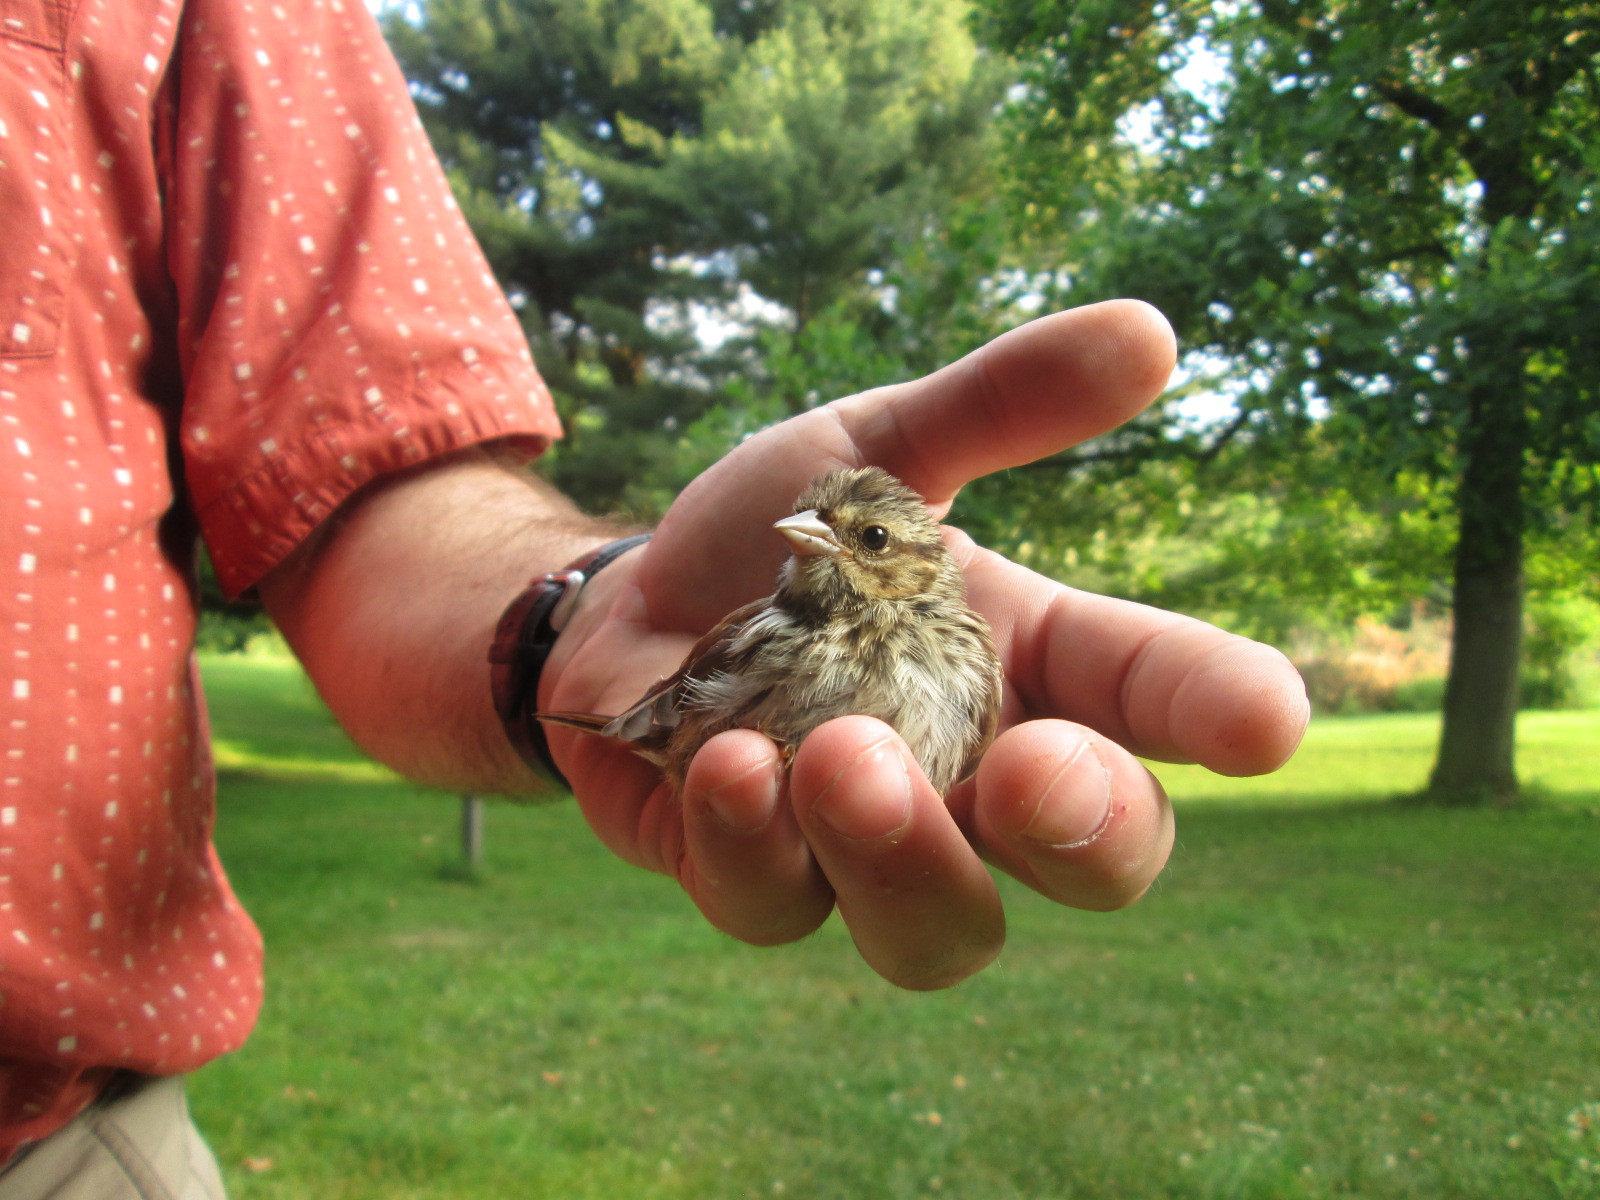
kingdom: Animalia
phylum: Chordata
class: Aves
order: Passeriformes
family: Passerellidae
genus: Melospiza
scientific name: Melospiza melodia
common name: Song sparrow
